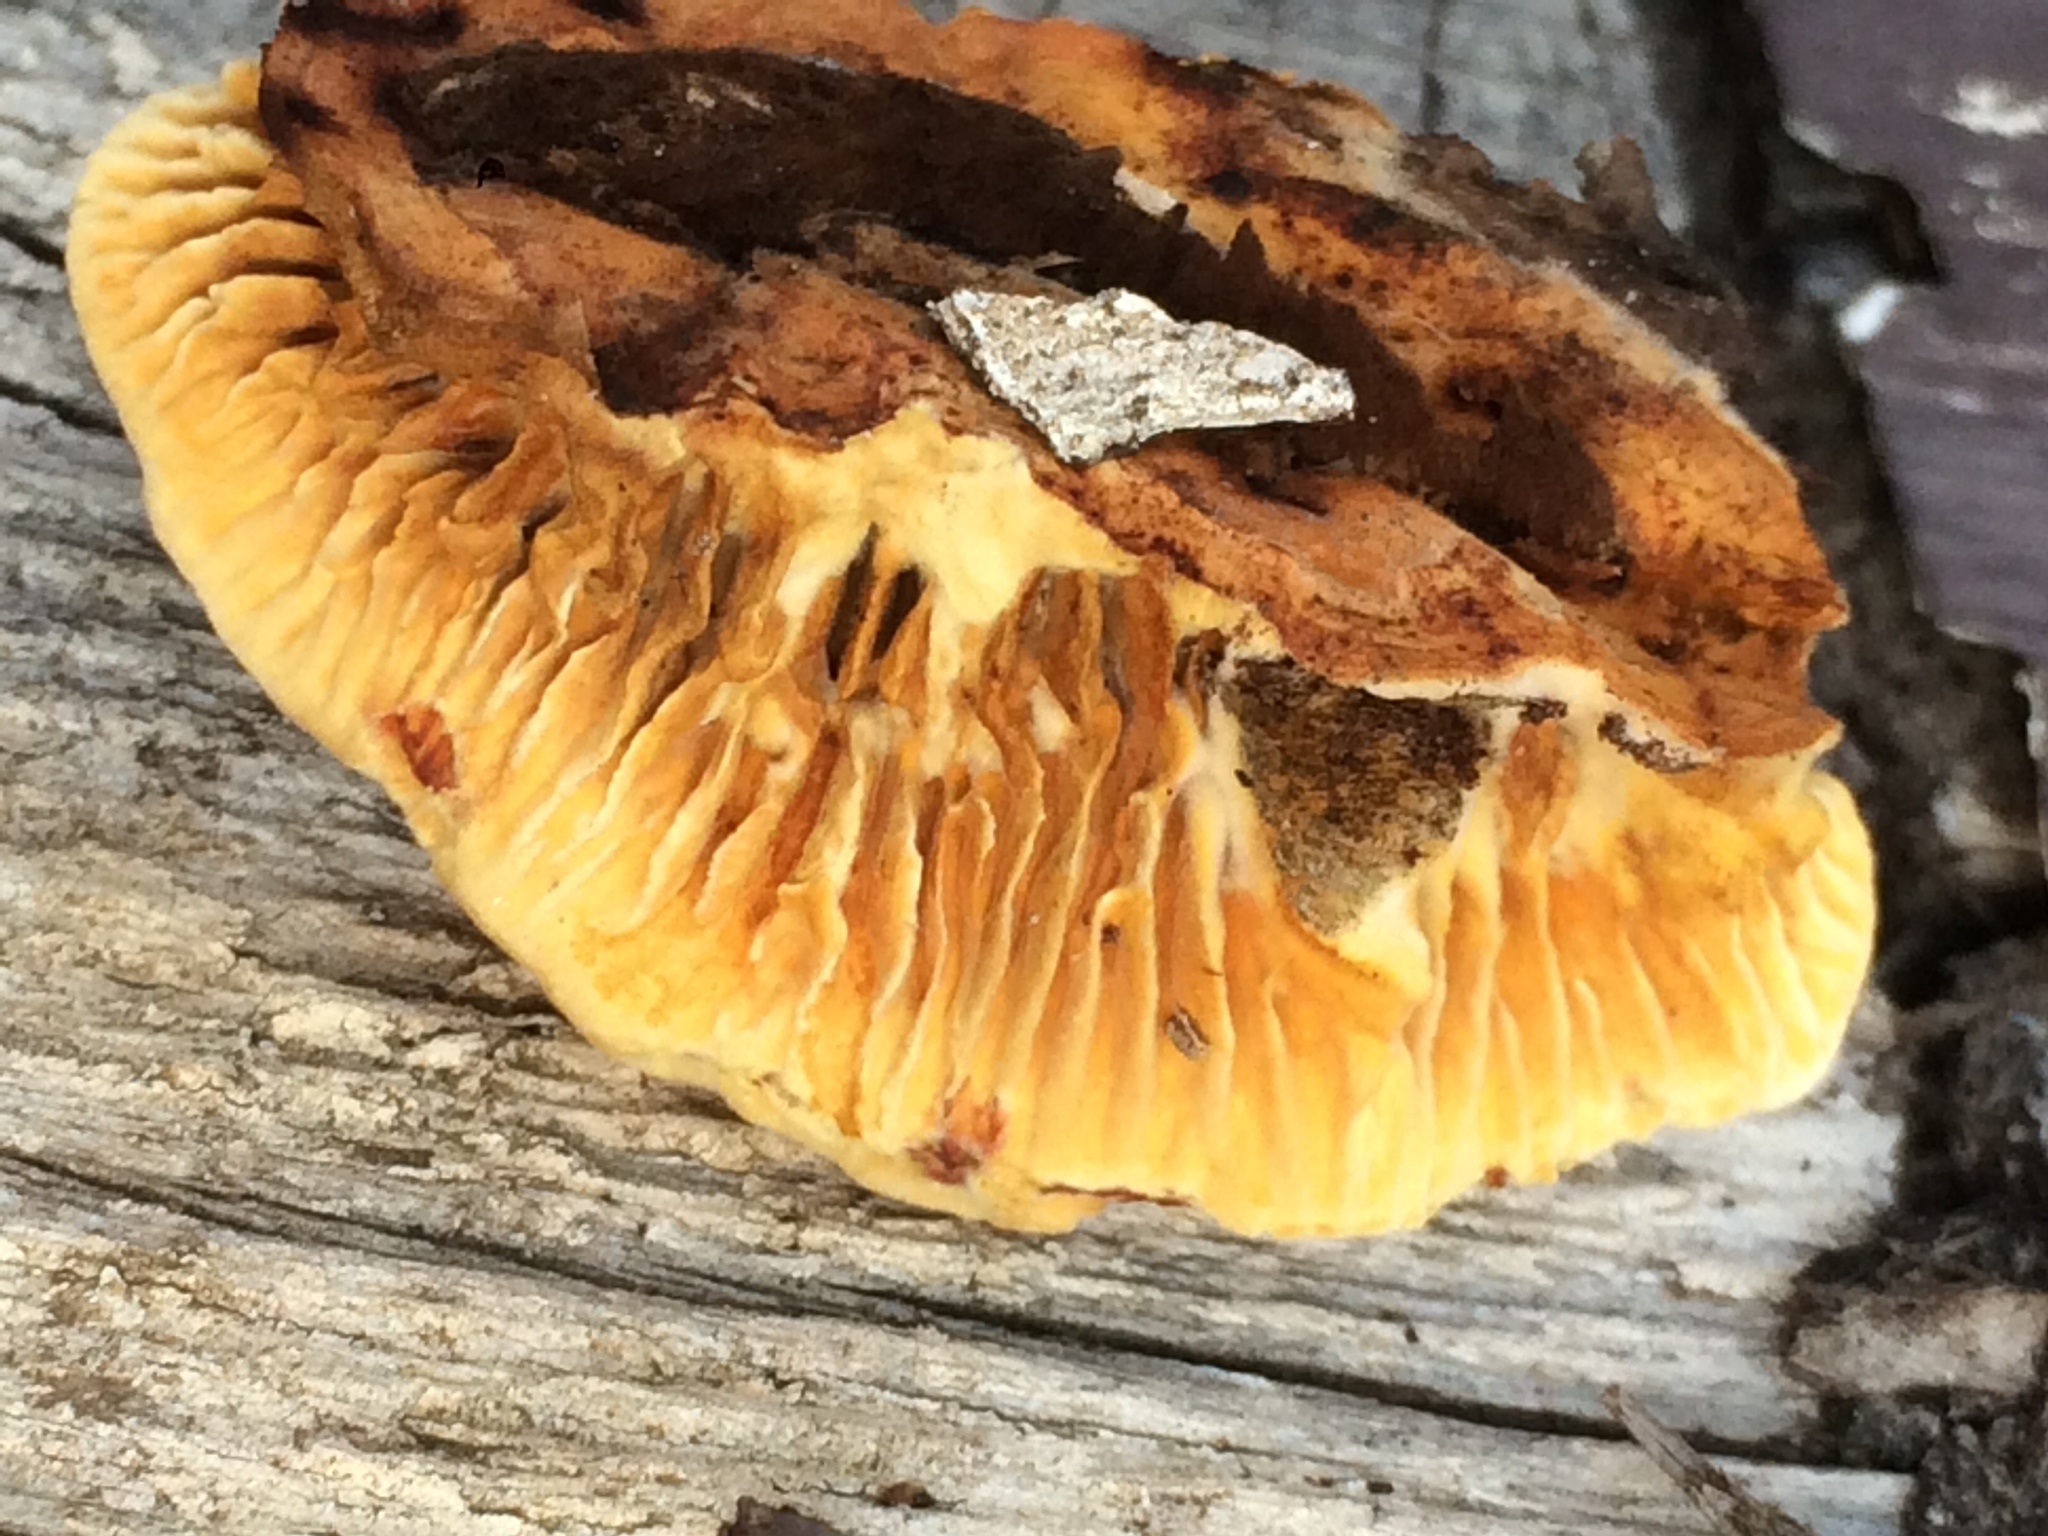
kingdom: Fungi
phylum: Basidiomycota
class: Agaricomycetes
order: Gloeophyllales
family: Gloeophyllaceae
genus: Gloeophyllum
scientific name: Gloeophyllum sepiarium
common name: Conifer mazegill
